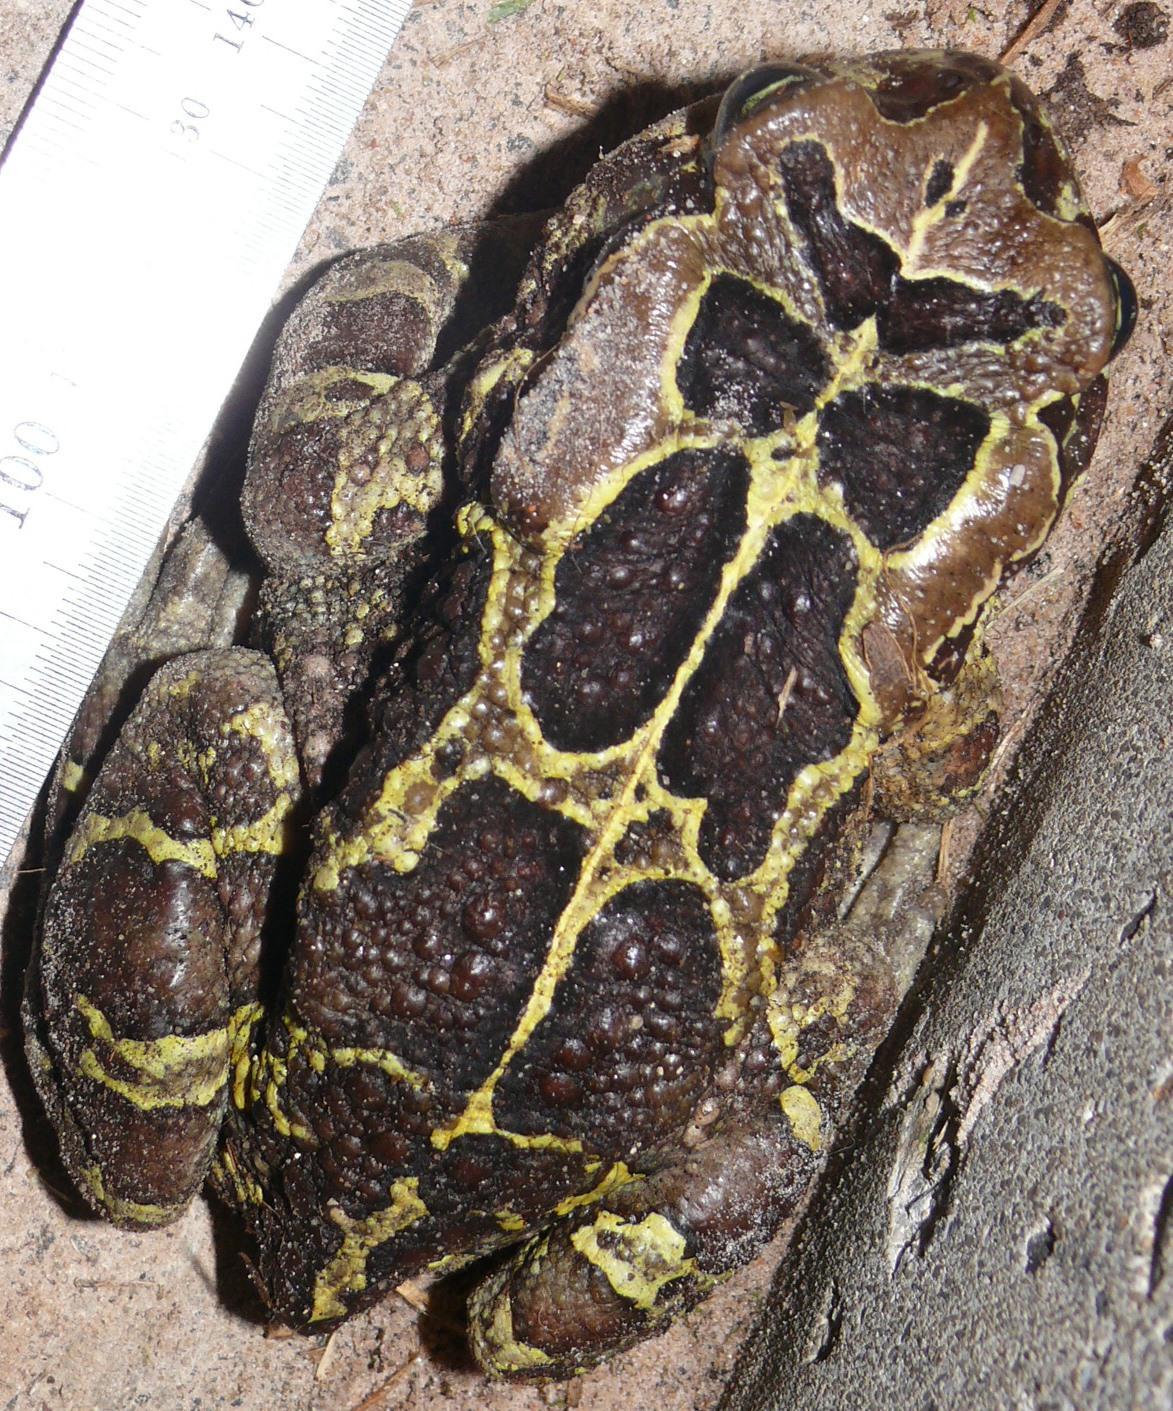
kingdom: Animalia
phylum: Chordata
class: Amphibia
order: Anura
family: Bufonidae
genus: Sclerophrys
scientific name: Sclerophrys pantherina
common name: Panther toad
